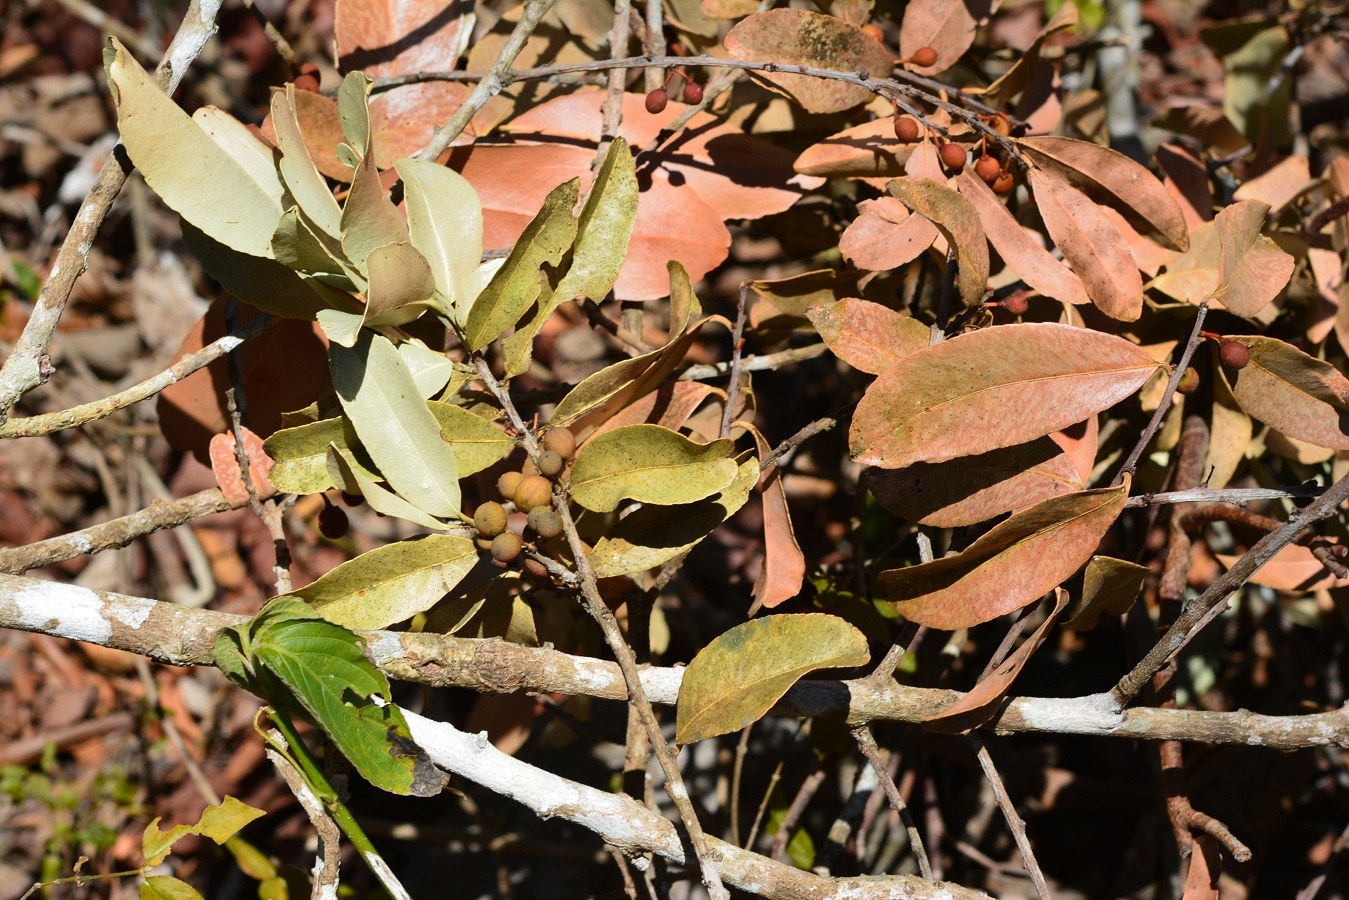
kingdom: Plantae
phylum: Tracheophyta
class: Magnoliopsida
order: Celastrales
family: Celastraceae
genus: Monteverdia
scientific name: Monteverdia stipitata
